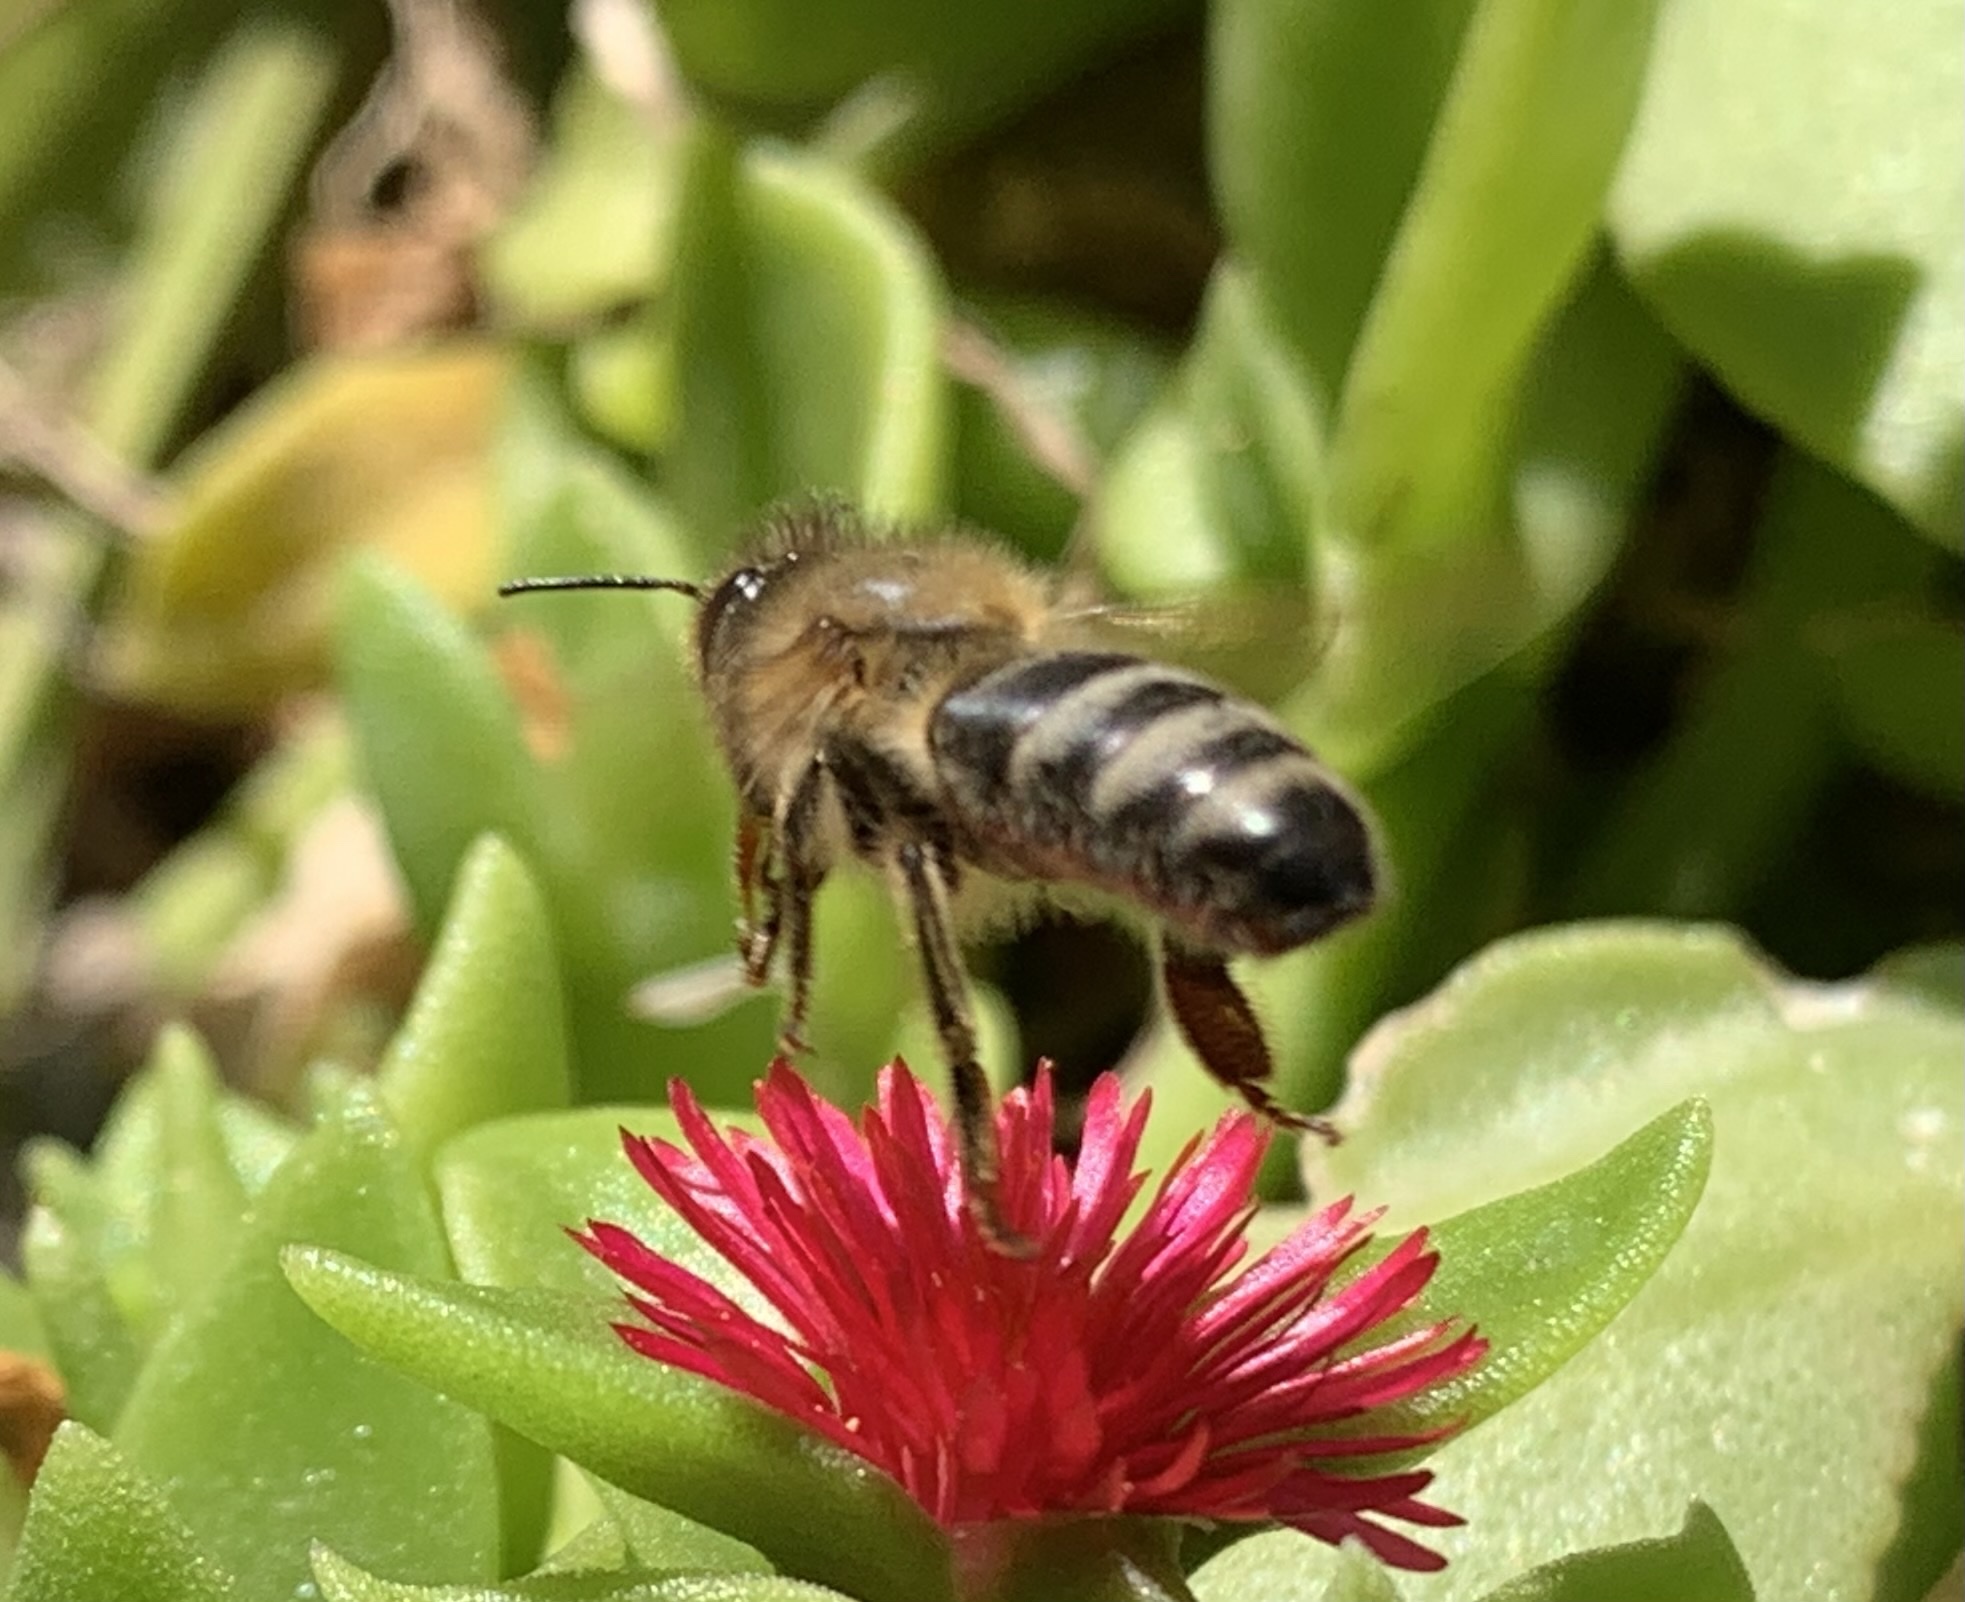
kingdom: Animalia
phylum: Arthropoda
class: Insecta
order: Hymenoptera
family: Apidae
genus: Apis
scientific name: Apis mellifera
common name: Honey bee
